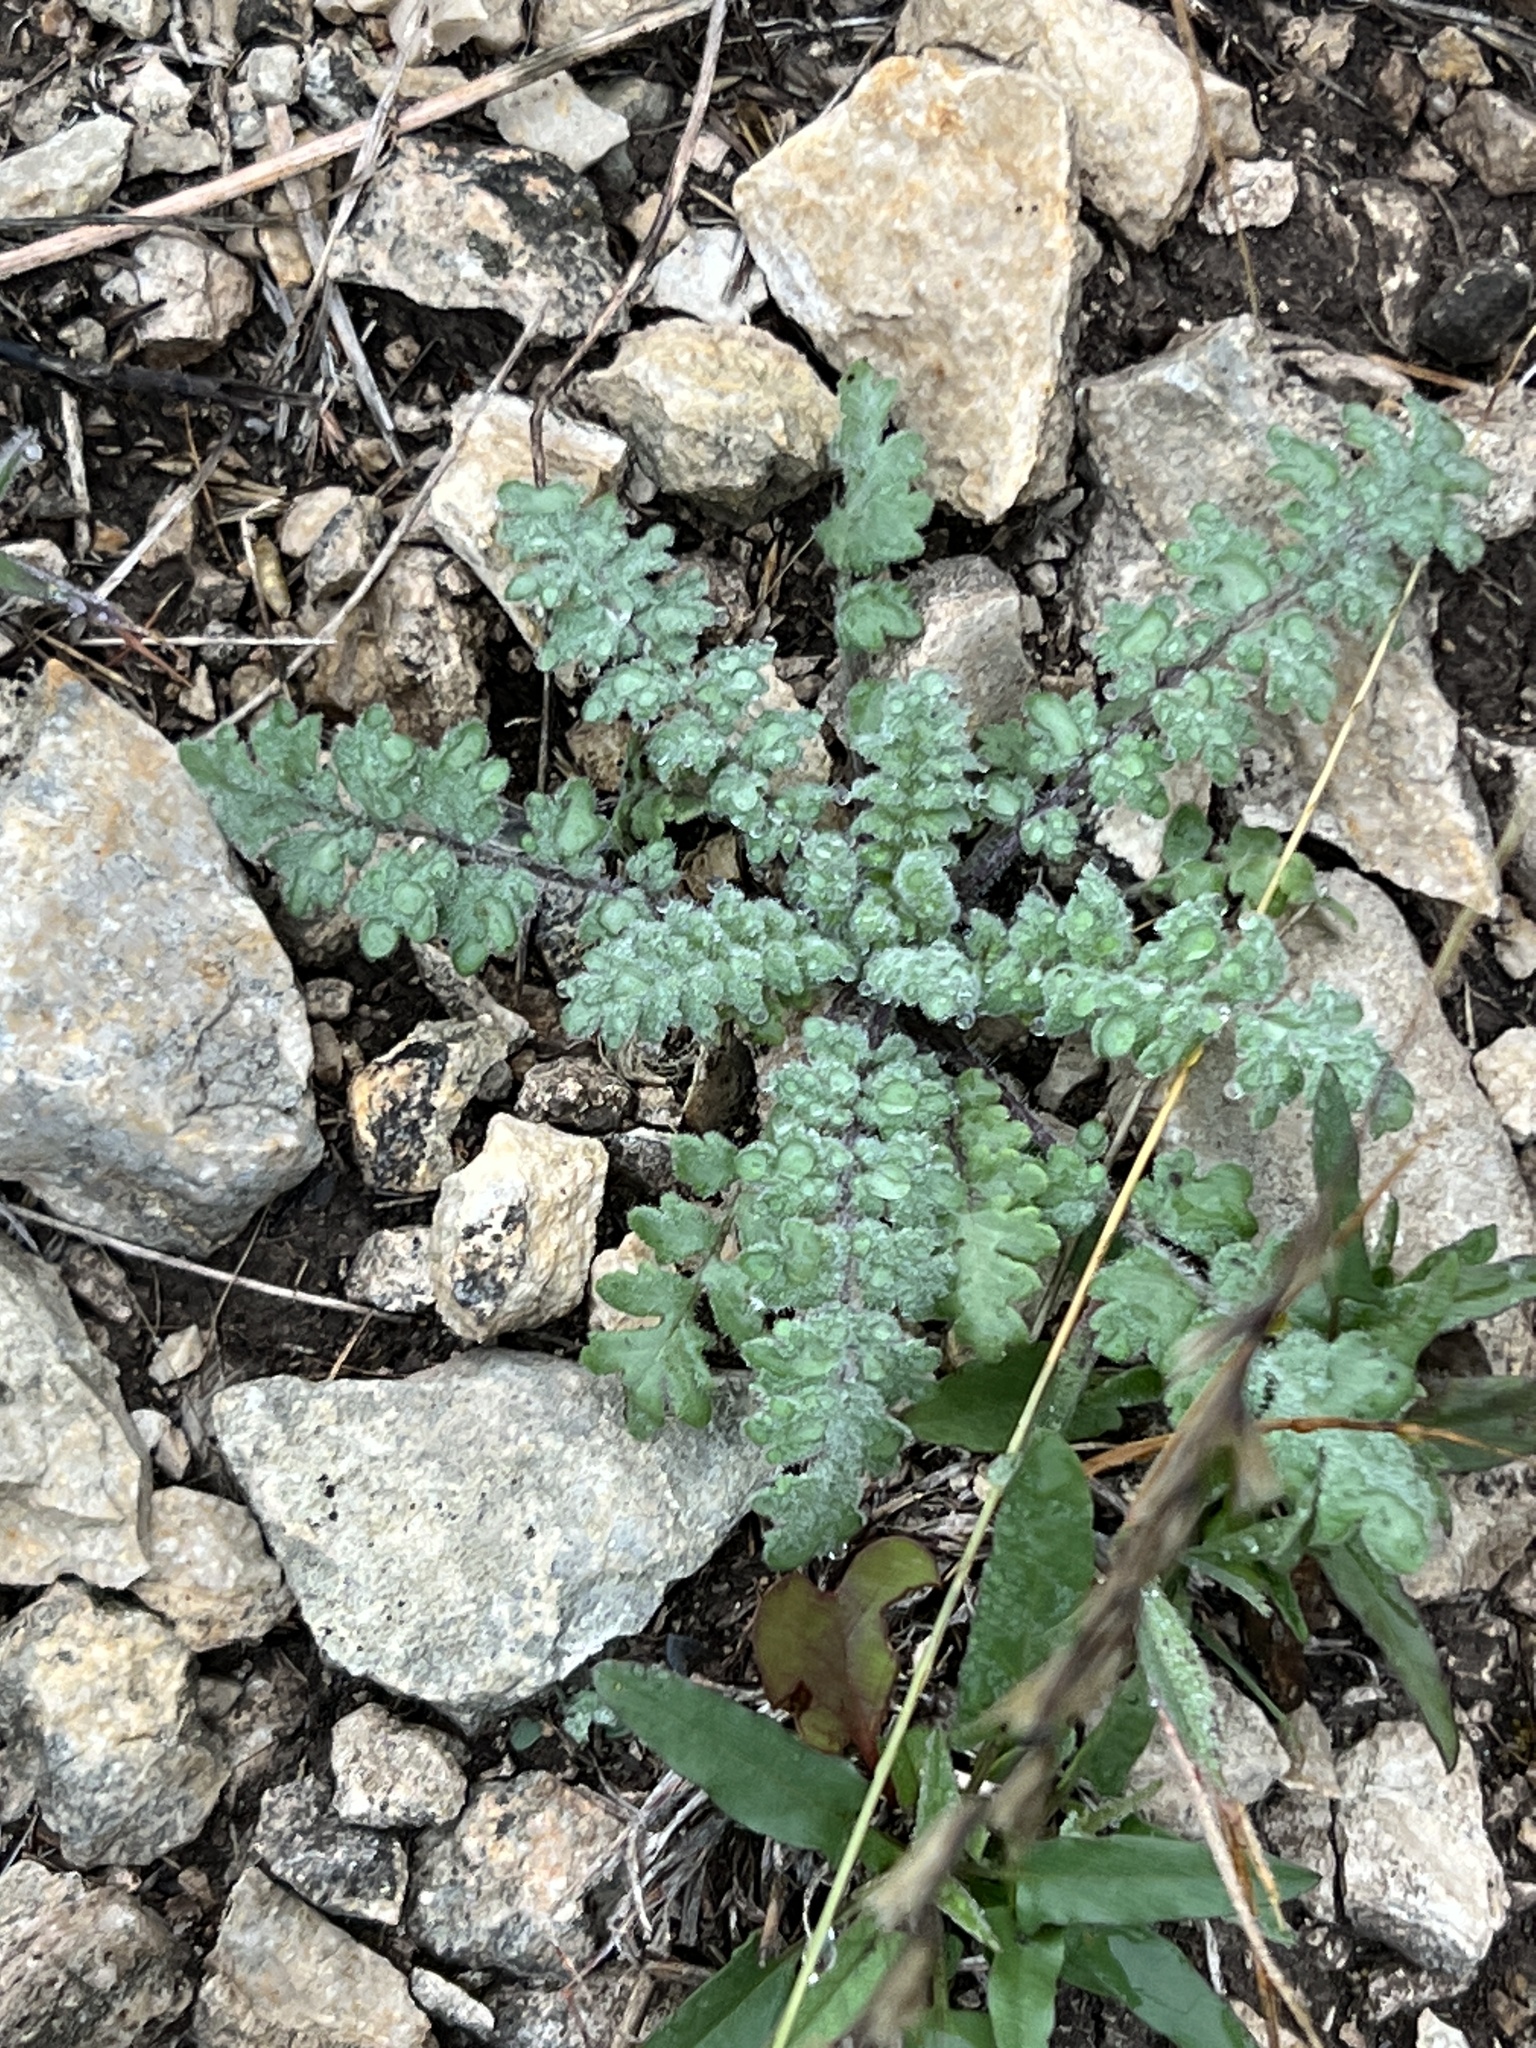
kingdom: Plantae
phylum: Tracheophyta
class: Magnoliopsida
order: Boraginales
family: Hydrophyllaceae
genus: Phacelia
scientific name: Phacelia congesta
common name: Blue curls
